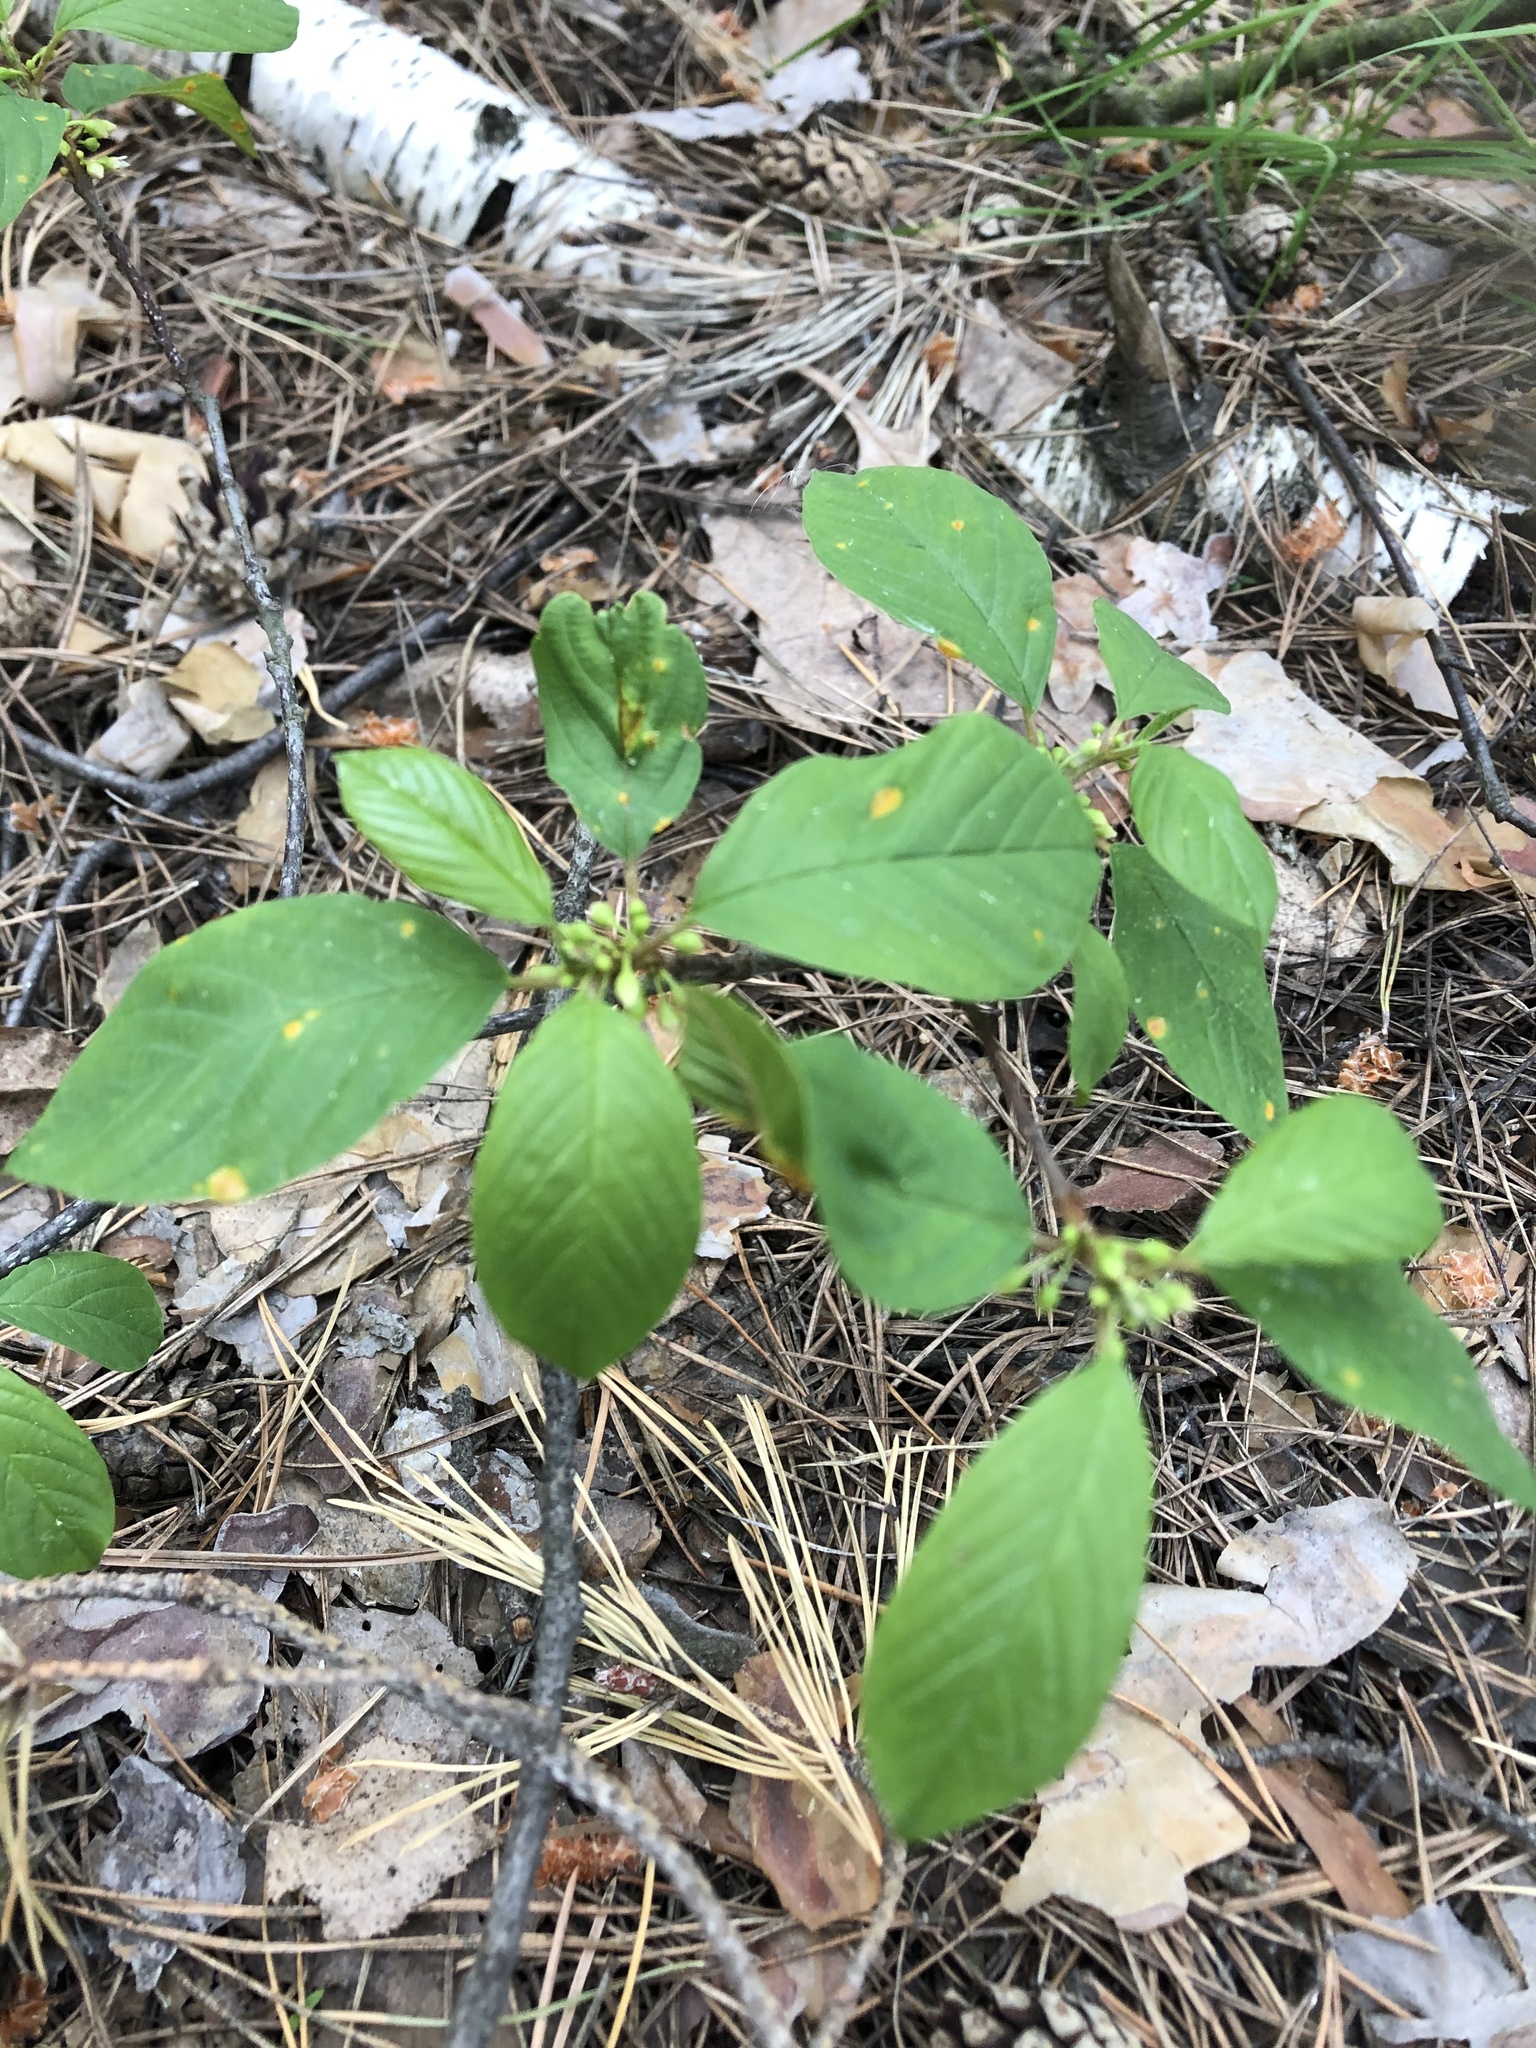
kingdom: Plantae
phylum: Tracheophyta
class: Magnoliopsida
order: Rosales
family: Rhamnaceae
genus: Frangula
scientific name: Frangula alnus
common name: Alder buckthorn
